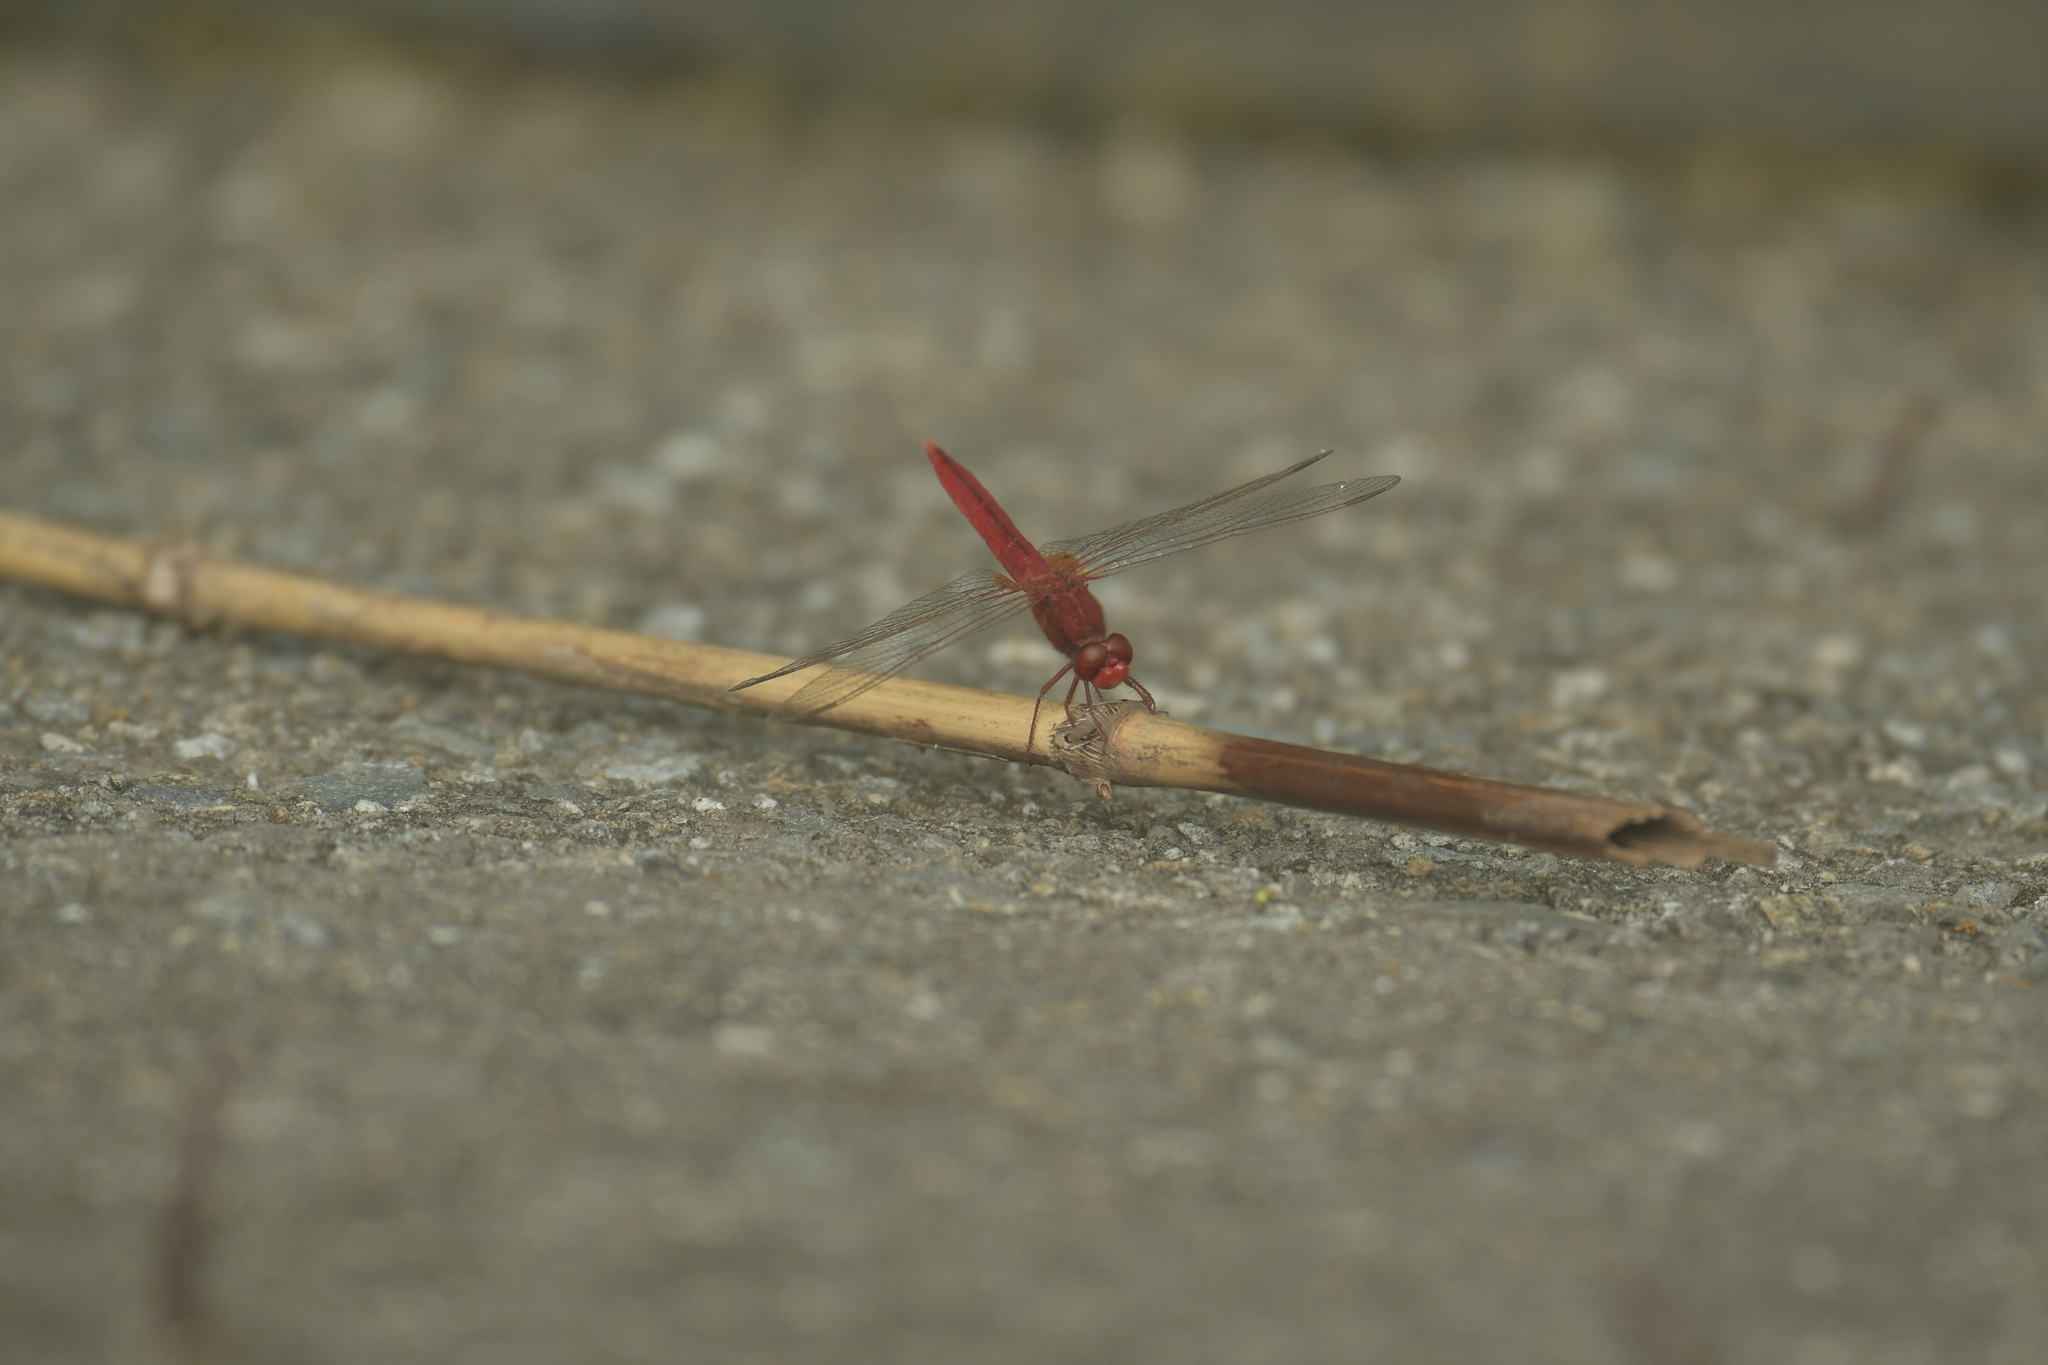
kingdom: Animalia
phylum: Arthropoda
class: Insecta
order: Odonata
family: Libellulidae
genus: Crocothemis
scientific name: Crocothemis servilia
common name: Scarlet skimmer
